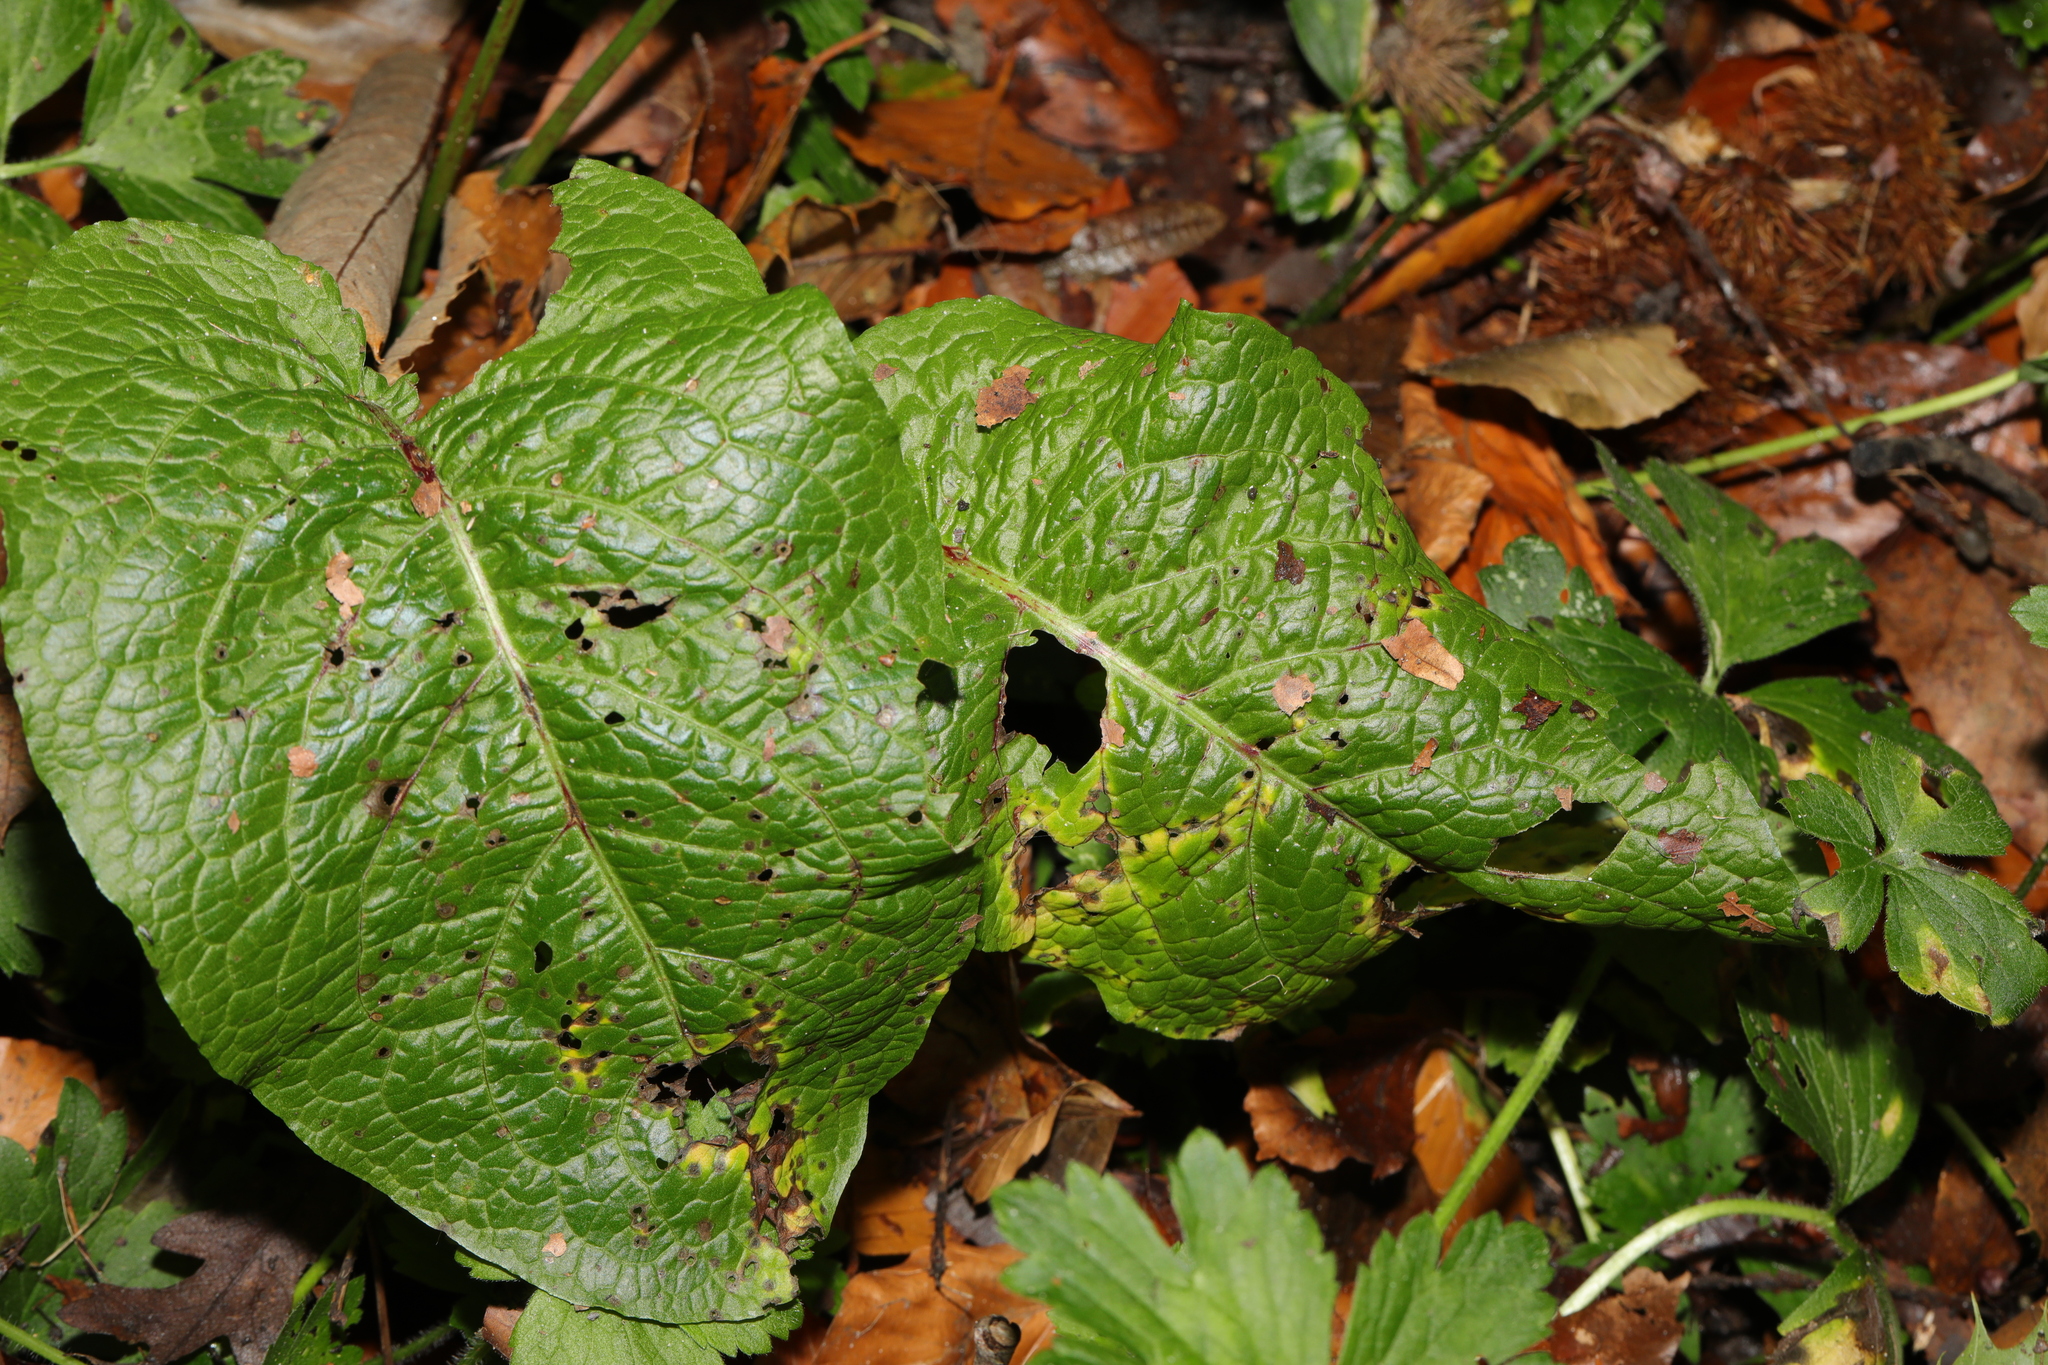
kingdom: Plantae
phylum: Tracheophyta
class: Magnoliopsida
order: Caryophyllales
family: Polygonaceae
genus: Rumex
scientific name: Rumex obtusifolius
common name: Bitter dock
